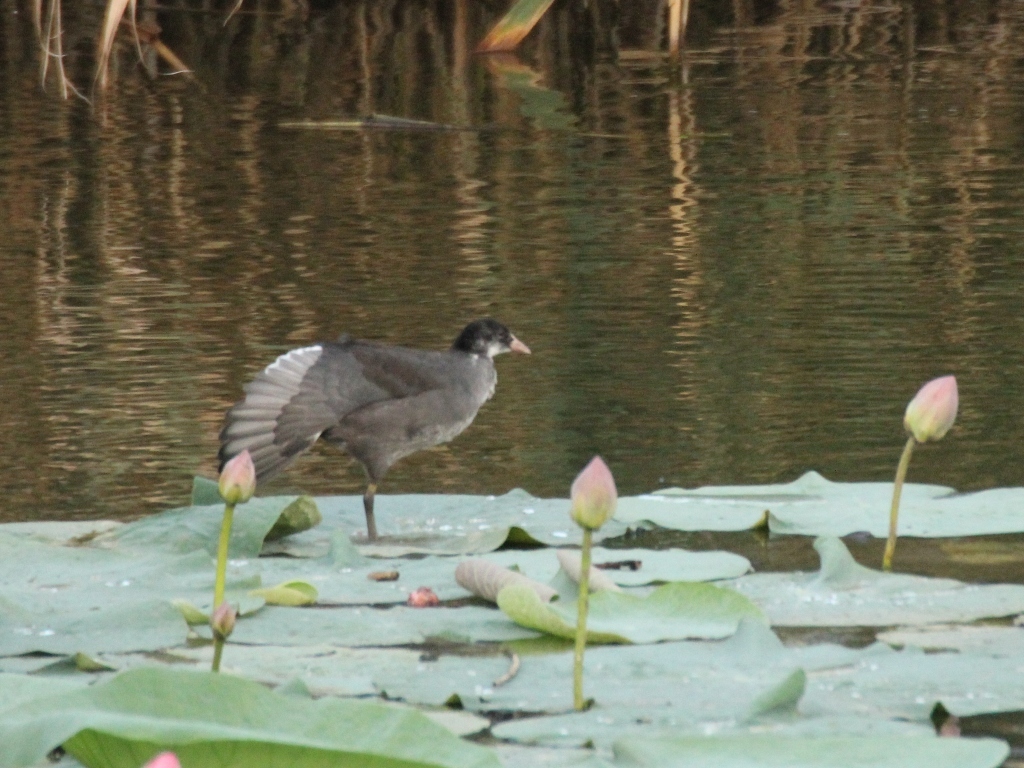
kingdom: Animalia
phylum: Chordata
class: Aves
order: Gruiformes
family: Rallidae
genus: Fulica
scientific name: Fulica atra
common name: Eurasian coot
